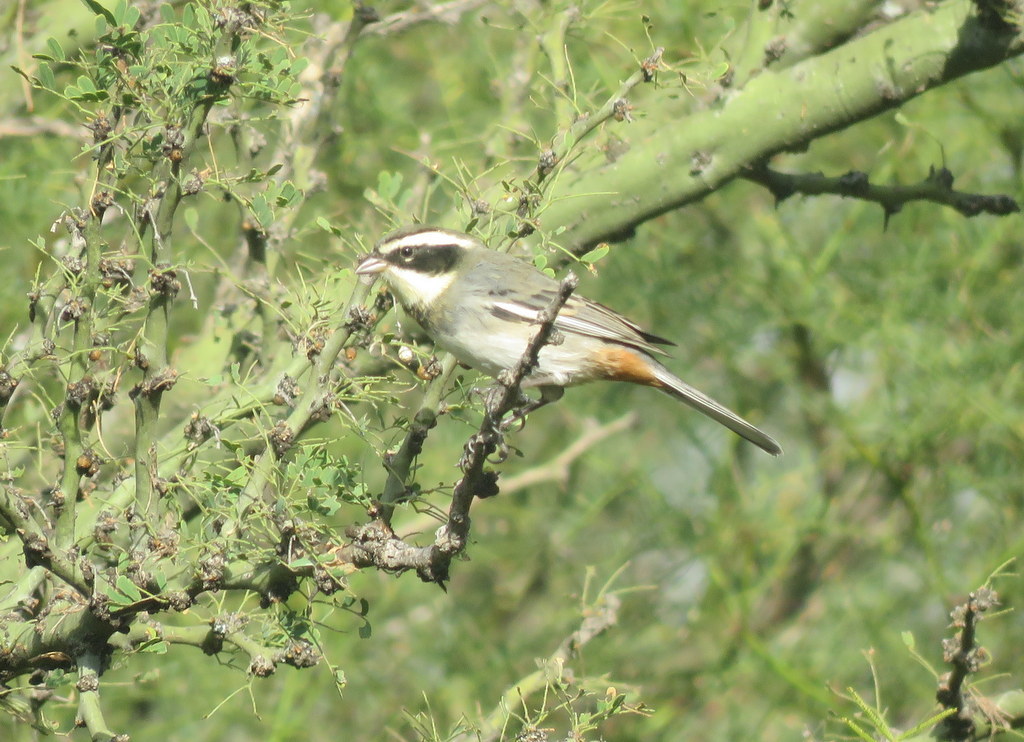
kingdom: Animalia
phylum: Chordata
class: Aves
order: Passeriformes
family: Thraupidae
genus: Microspingus
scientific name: Microspingus torquatus
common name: Ringed warbling-finch
